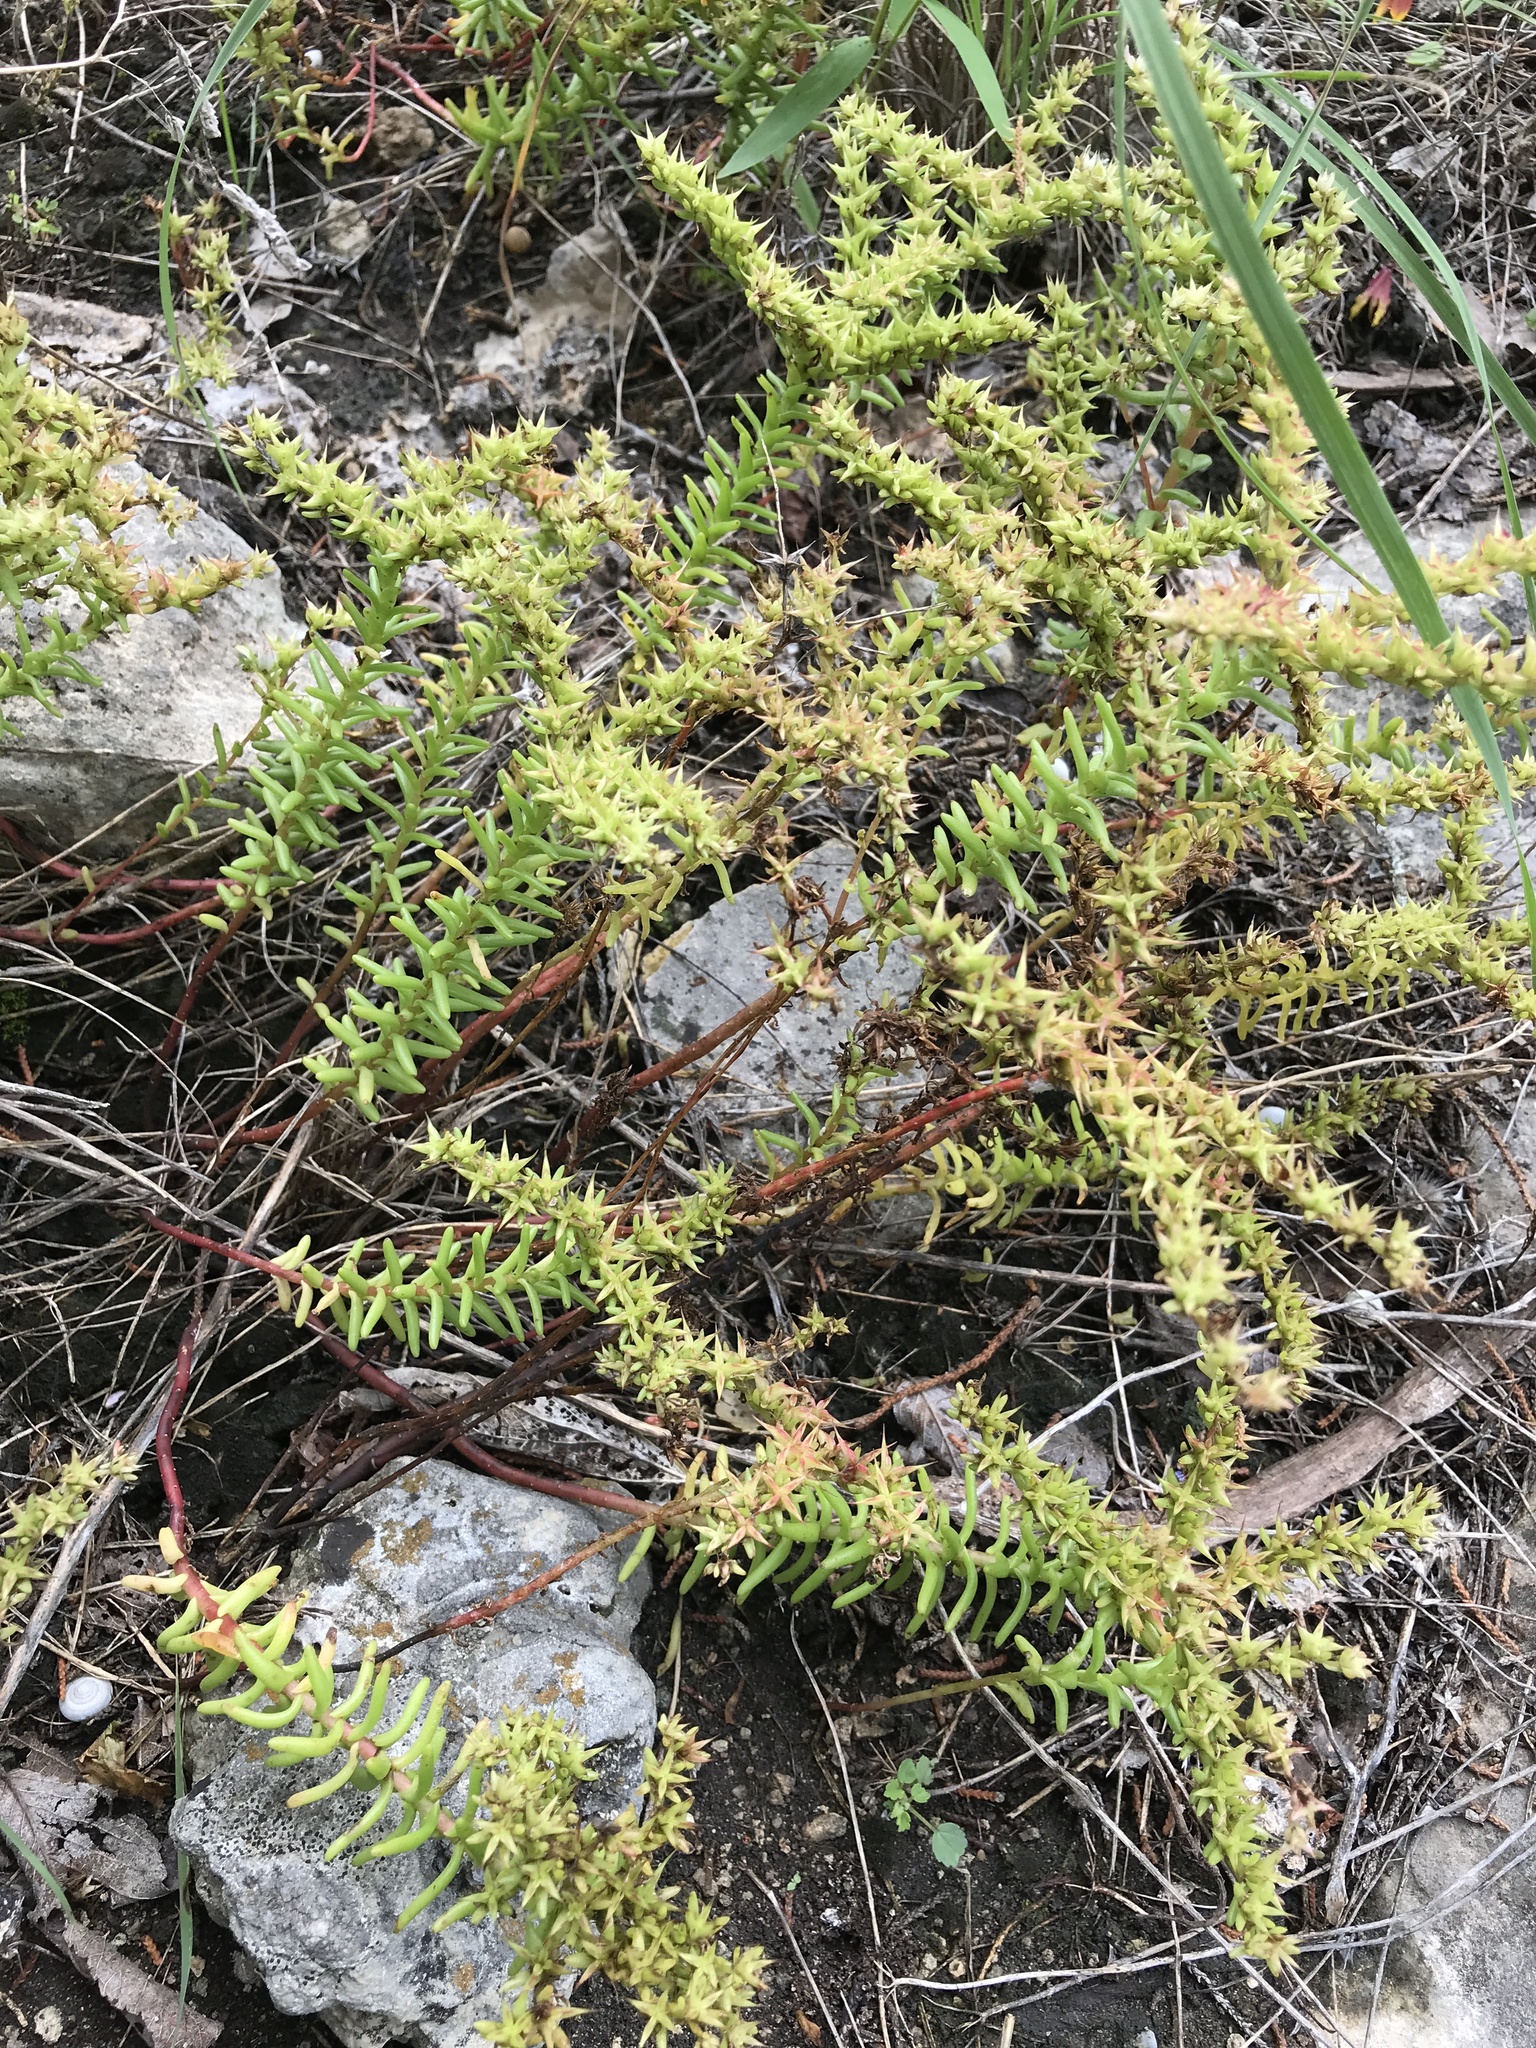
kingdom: Plantae
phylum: Tracheophyta
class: Magnoliopsida
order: Saxifragales
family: Crassulaceae
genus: Sedum
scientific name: Sedum pulchellum
